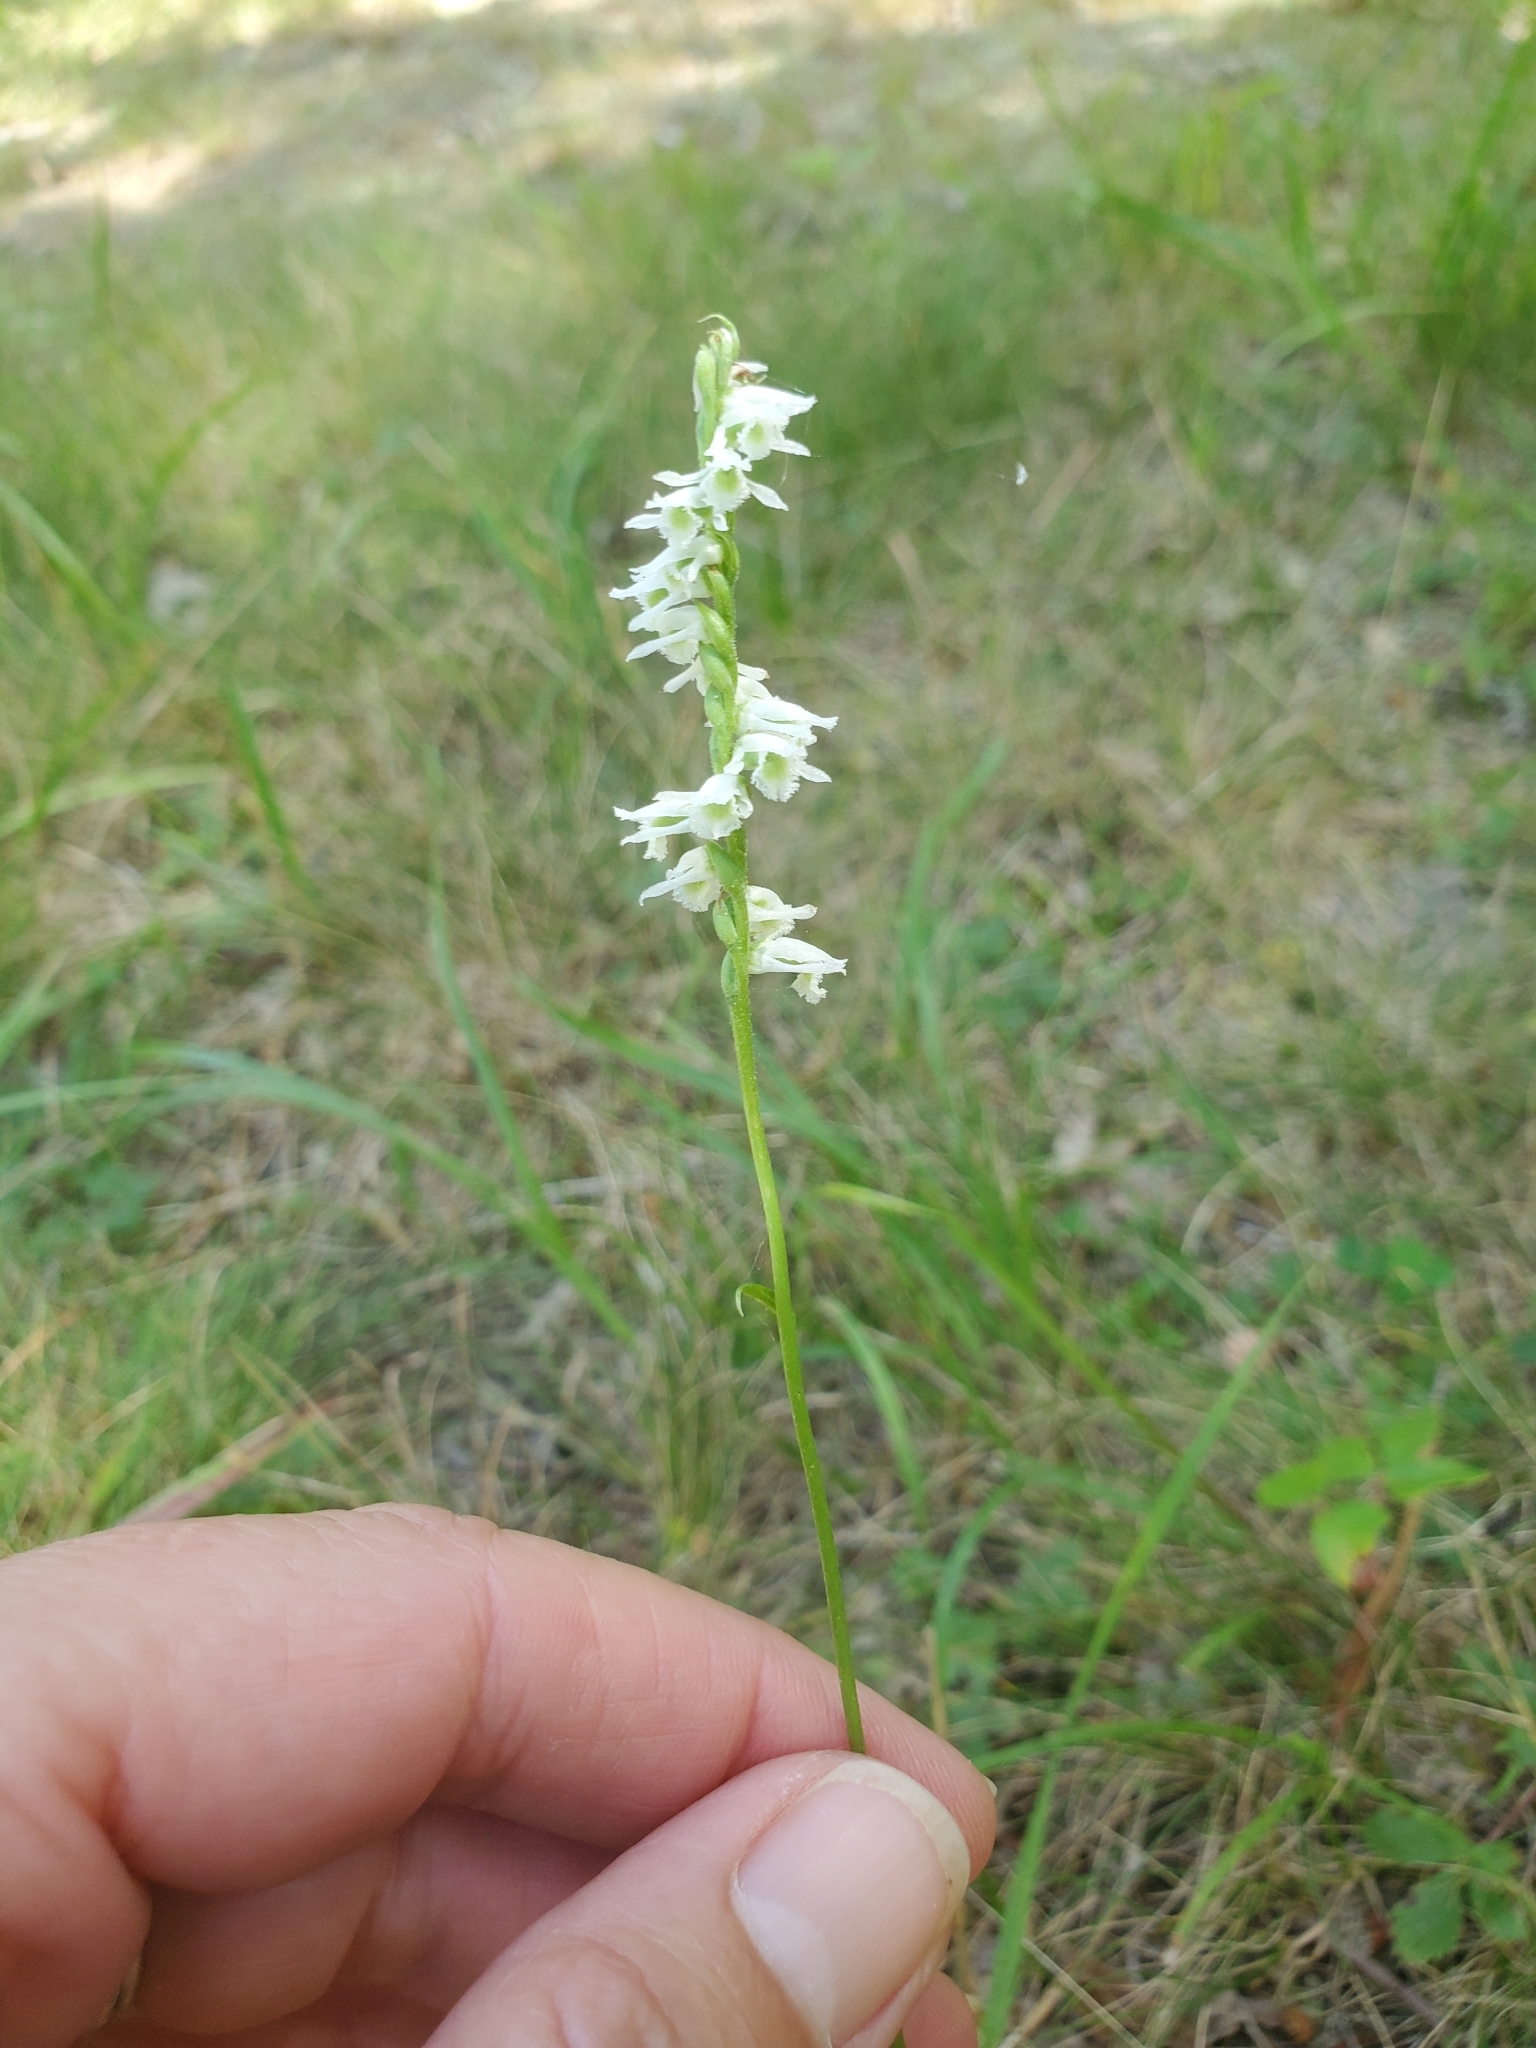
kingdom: Plantae
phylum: Tracheophyta
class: Liliopsida
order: Asparagales
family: Orchidaceae
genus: Spiranthes
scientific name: Spiranthes lacera
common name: Northern slender ladies'-tresses
